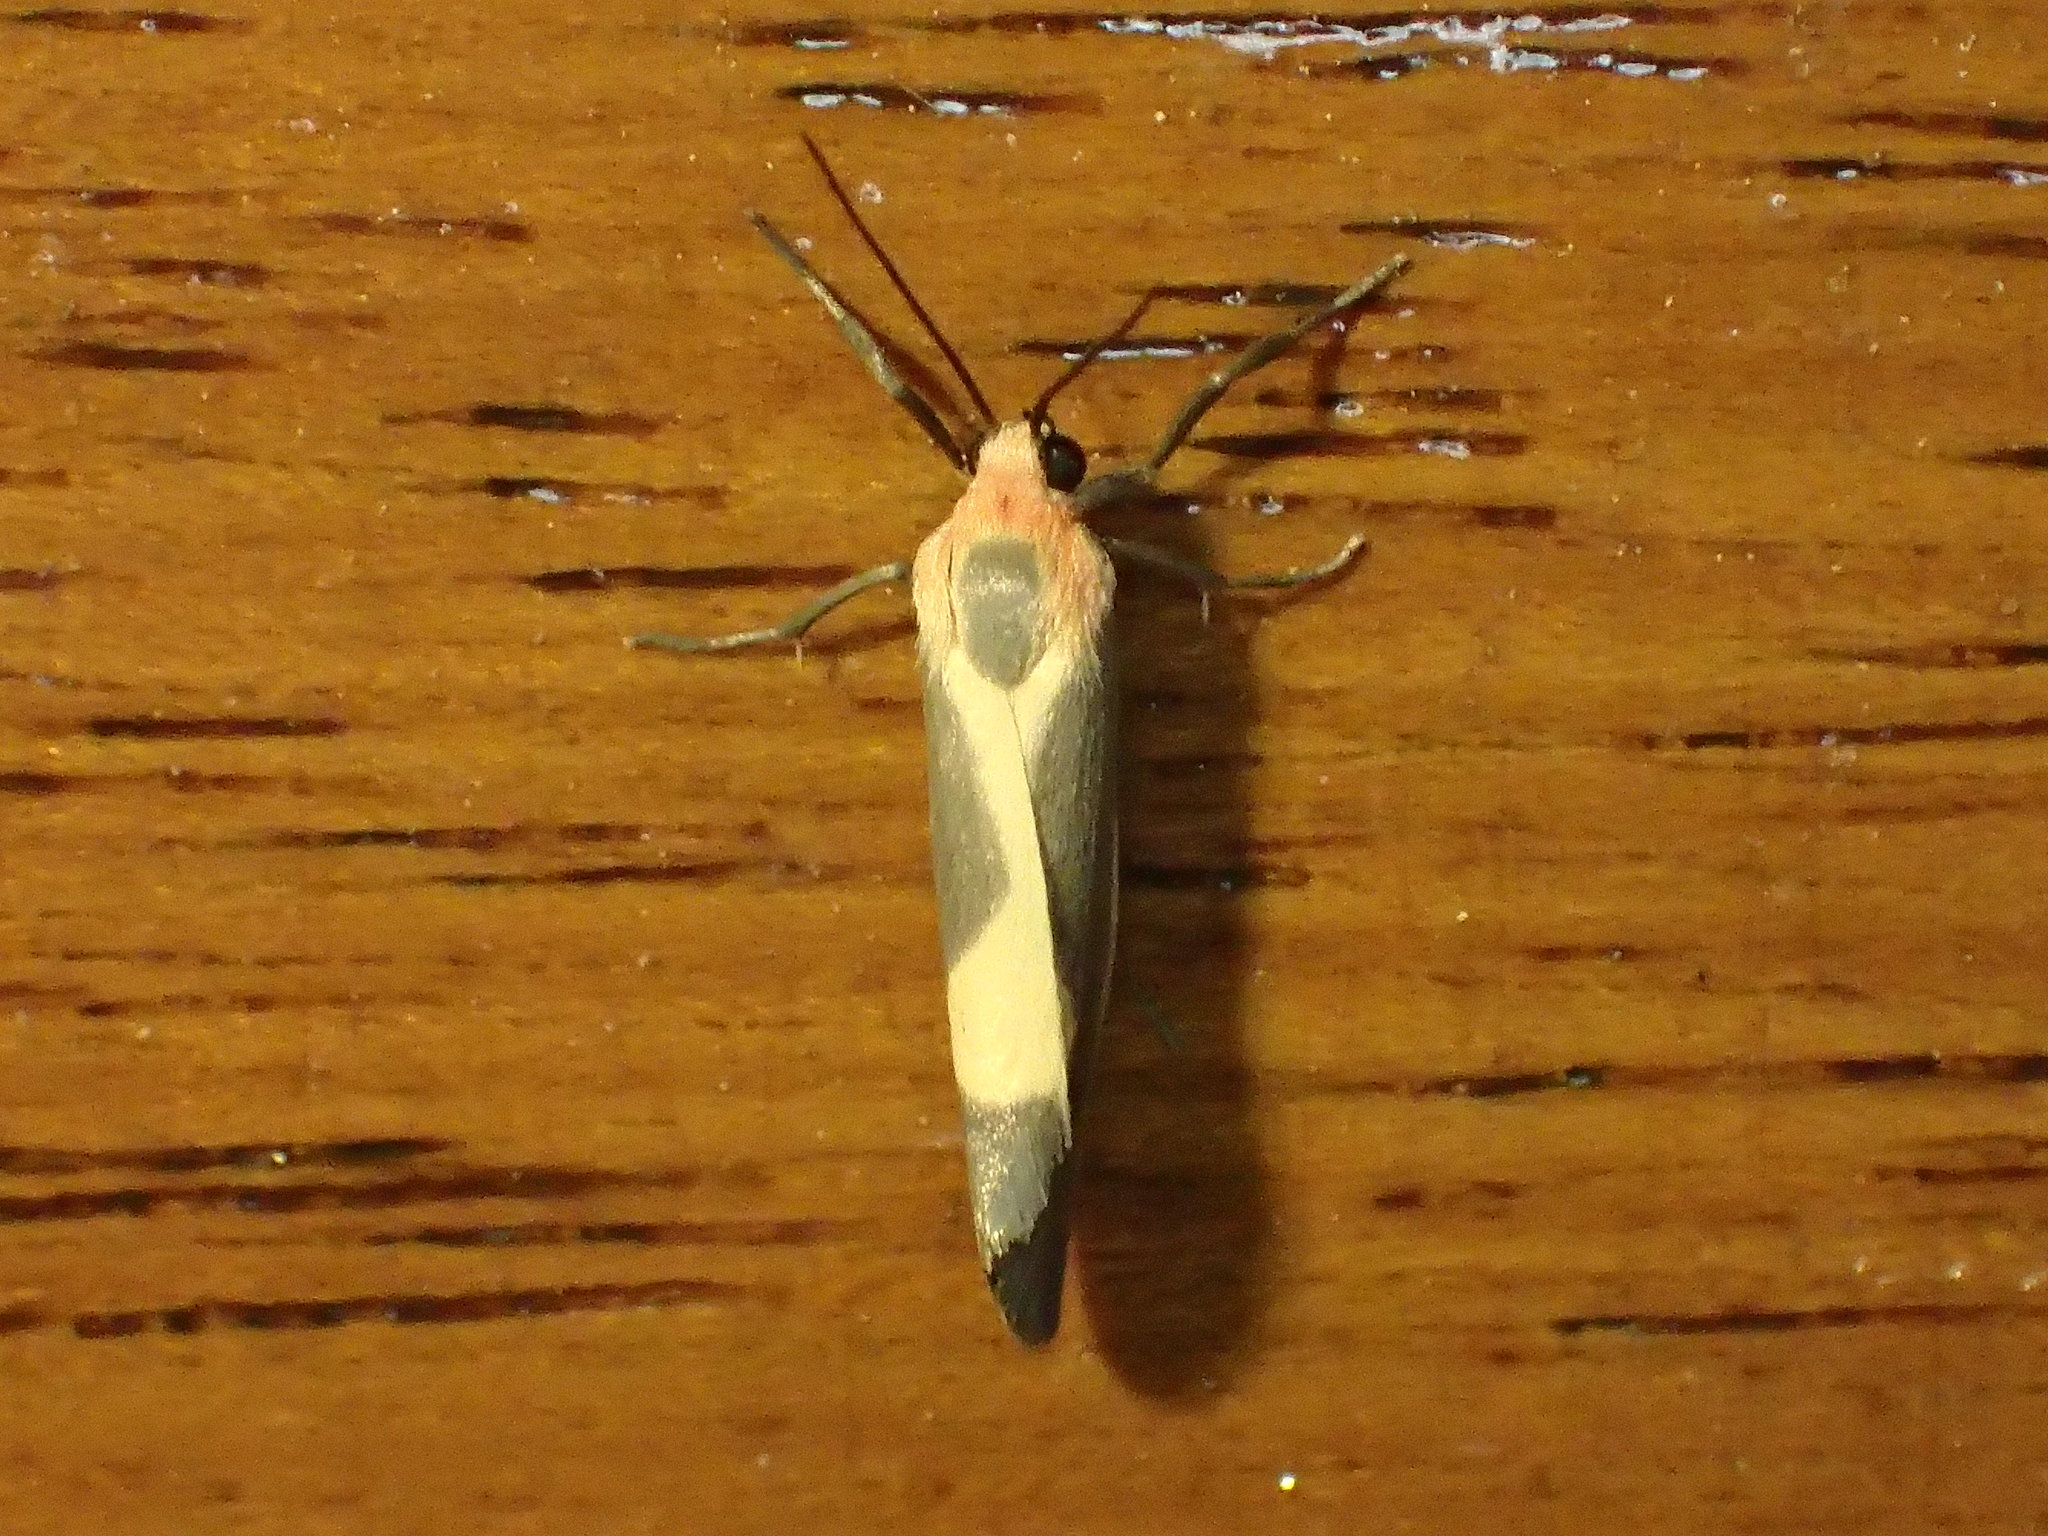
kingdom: Animalia
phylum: Arthropoda
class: Insecta
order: Lepidoptera
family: Erebidae
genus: Cisthene
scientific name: Cisthene plumbea
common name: Lead colored lichen moth
